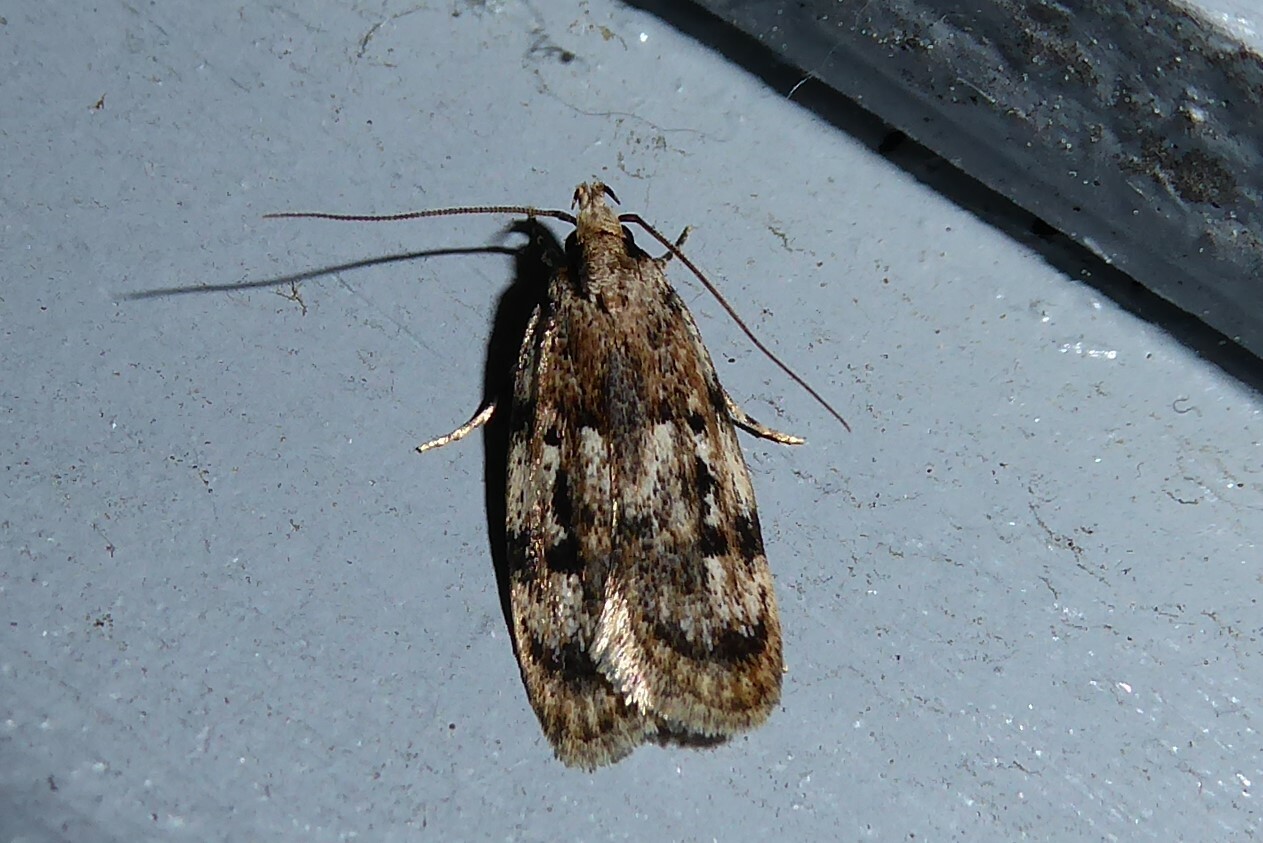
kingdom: Animalia
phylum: Arthropoda
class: Insecta
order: Lepidoptera
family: Oecophoridae
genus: Barea
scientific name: Barea exarcha
